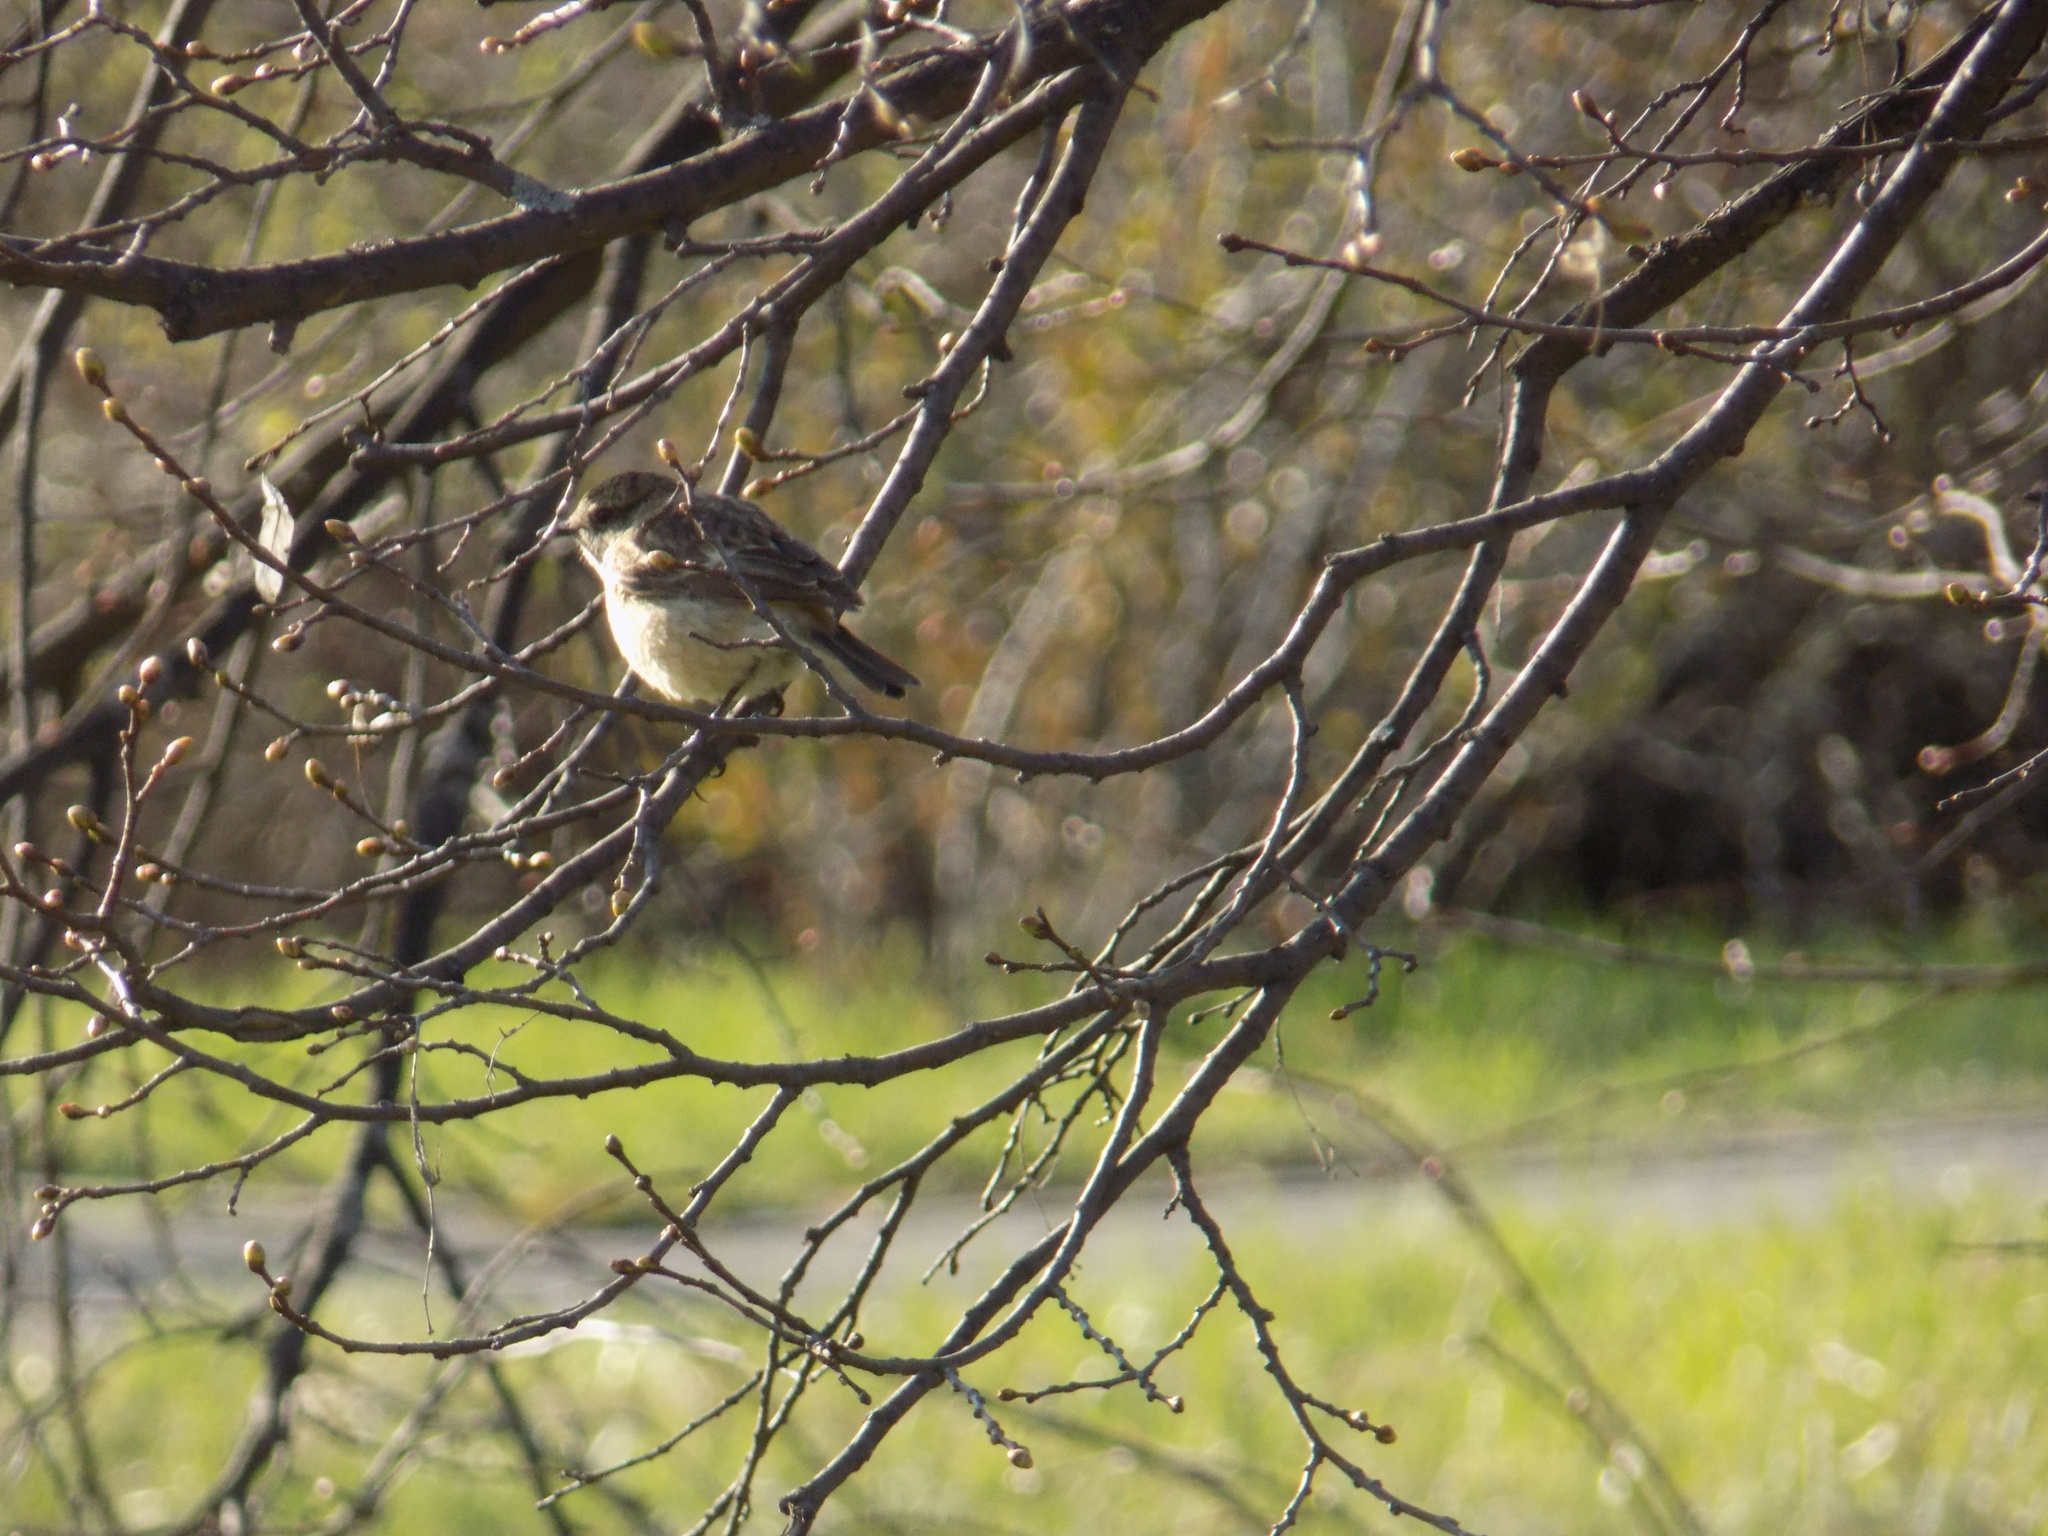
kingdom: Animalia
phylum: Chordata
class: Aves
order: Passeriformes
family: Muscicapidae
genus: Saxicola
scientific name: Saxicola maurus
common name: Siberian stonechat
